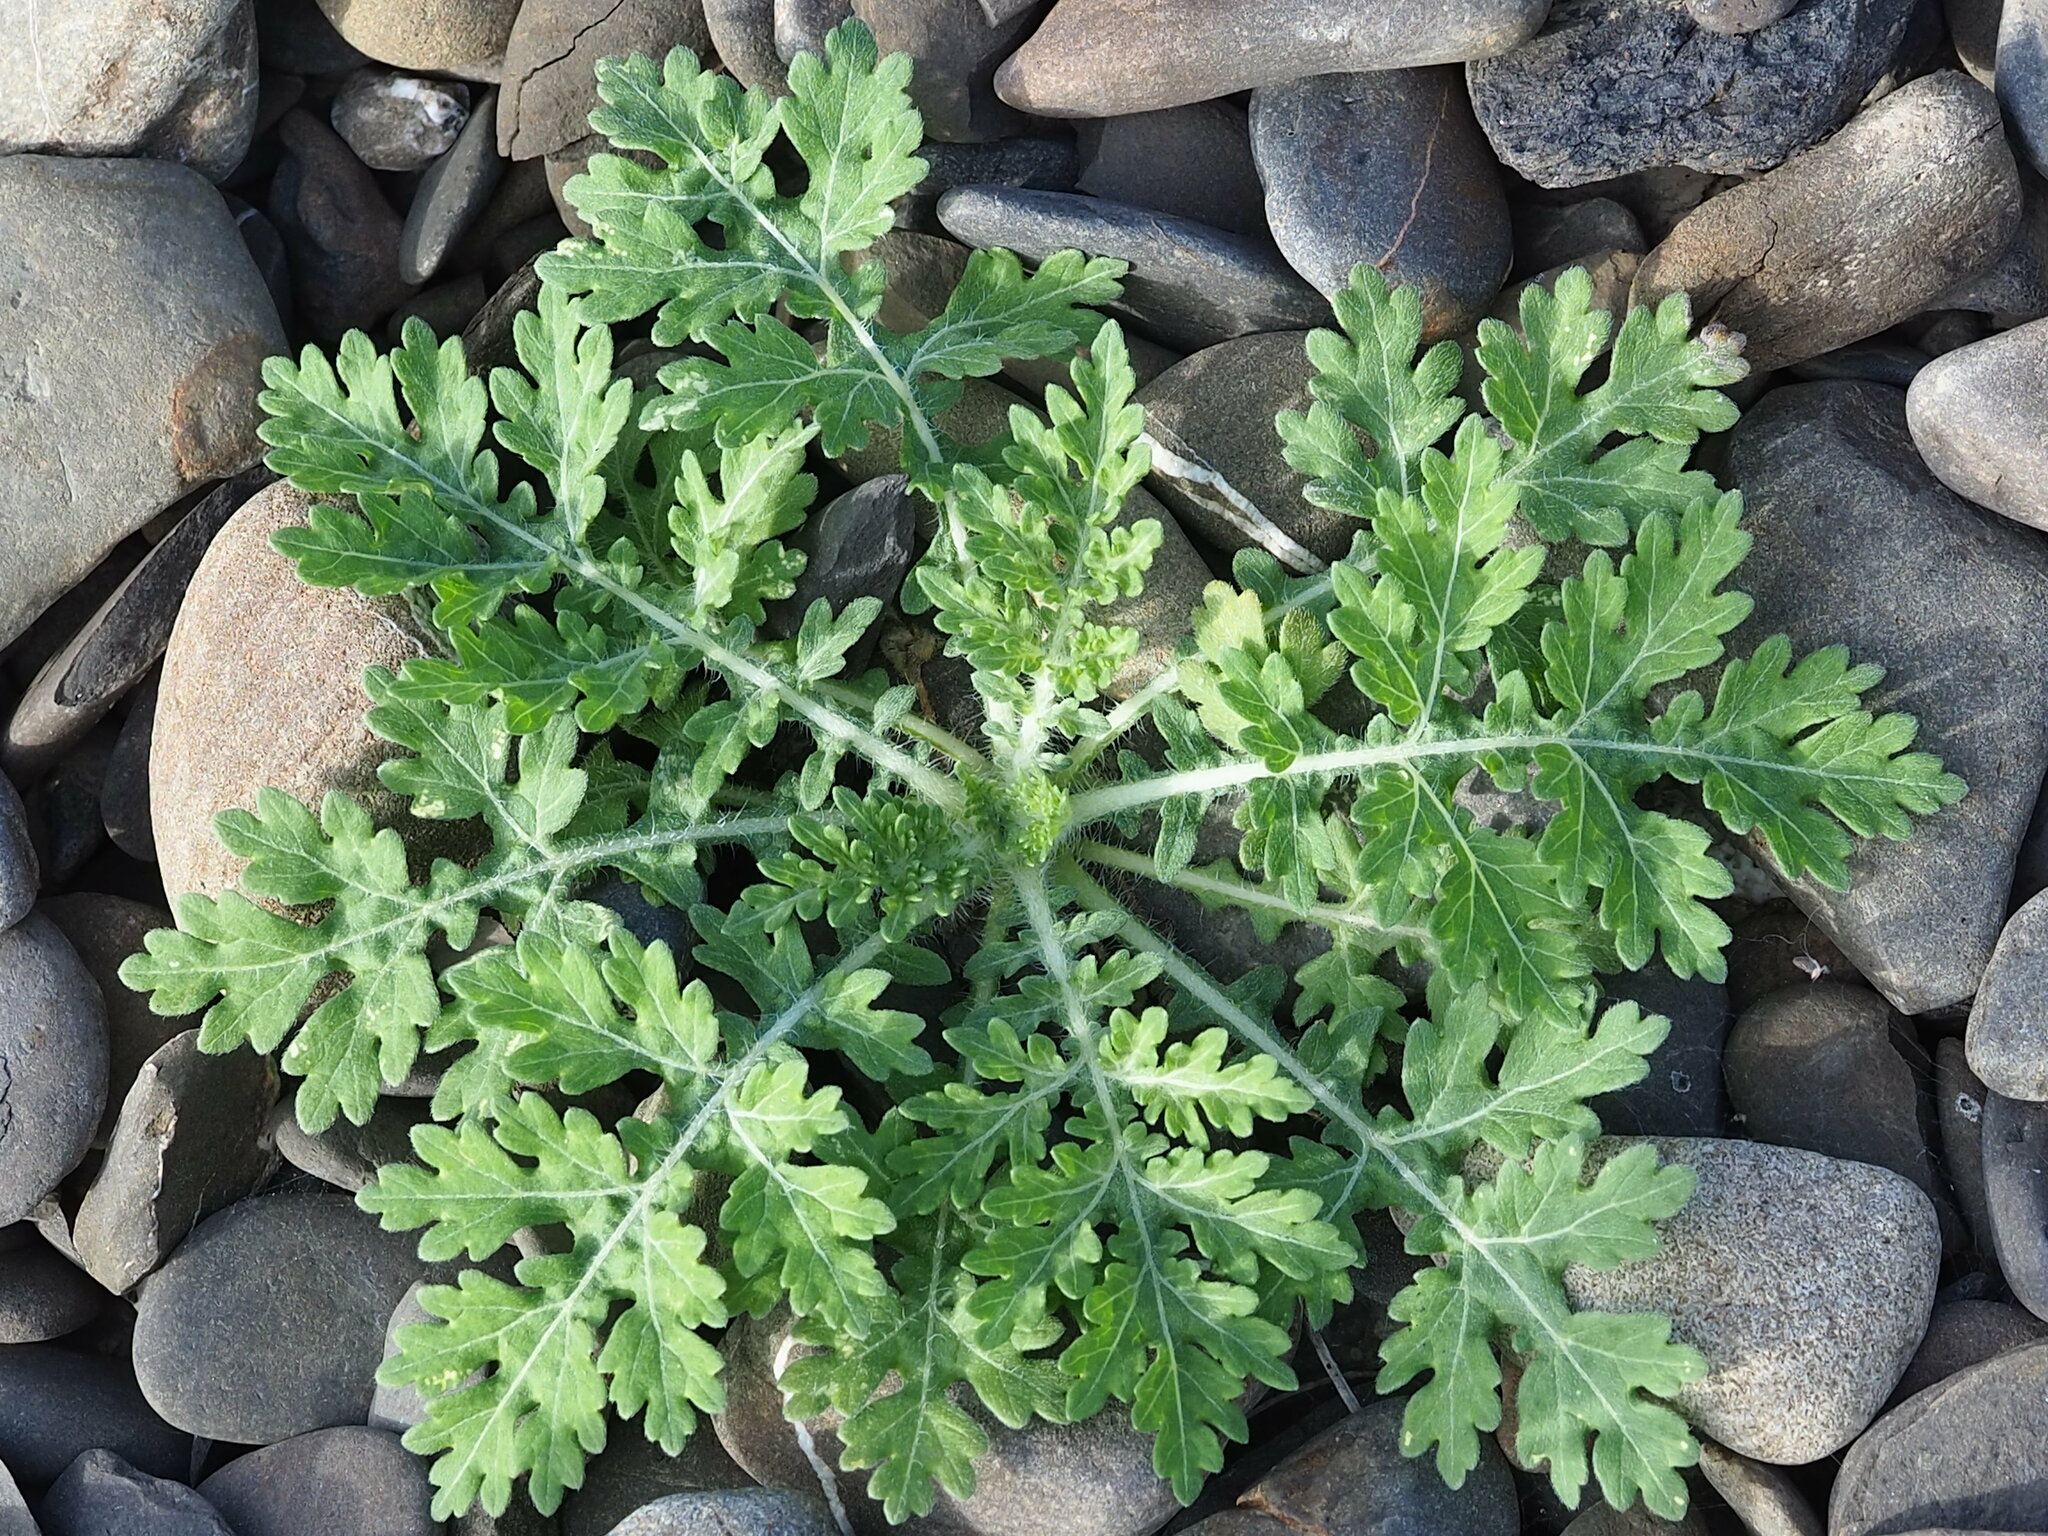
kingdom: Plantae
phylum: Tracheophyta
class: Magnoliopsida
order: Asterales
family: Asteraceae
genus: Parthenium
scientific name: Parthenium hysterophorus
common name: Santa maria feverfew
